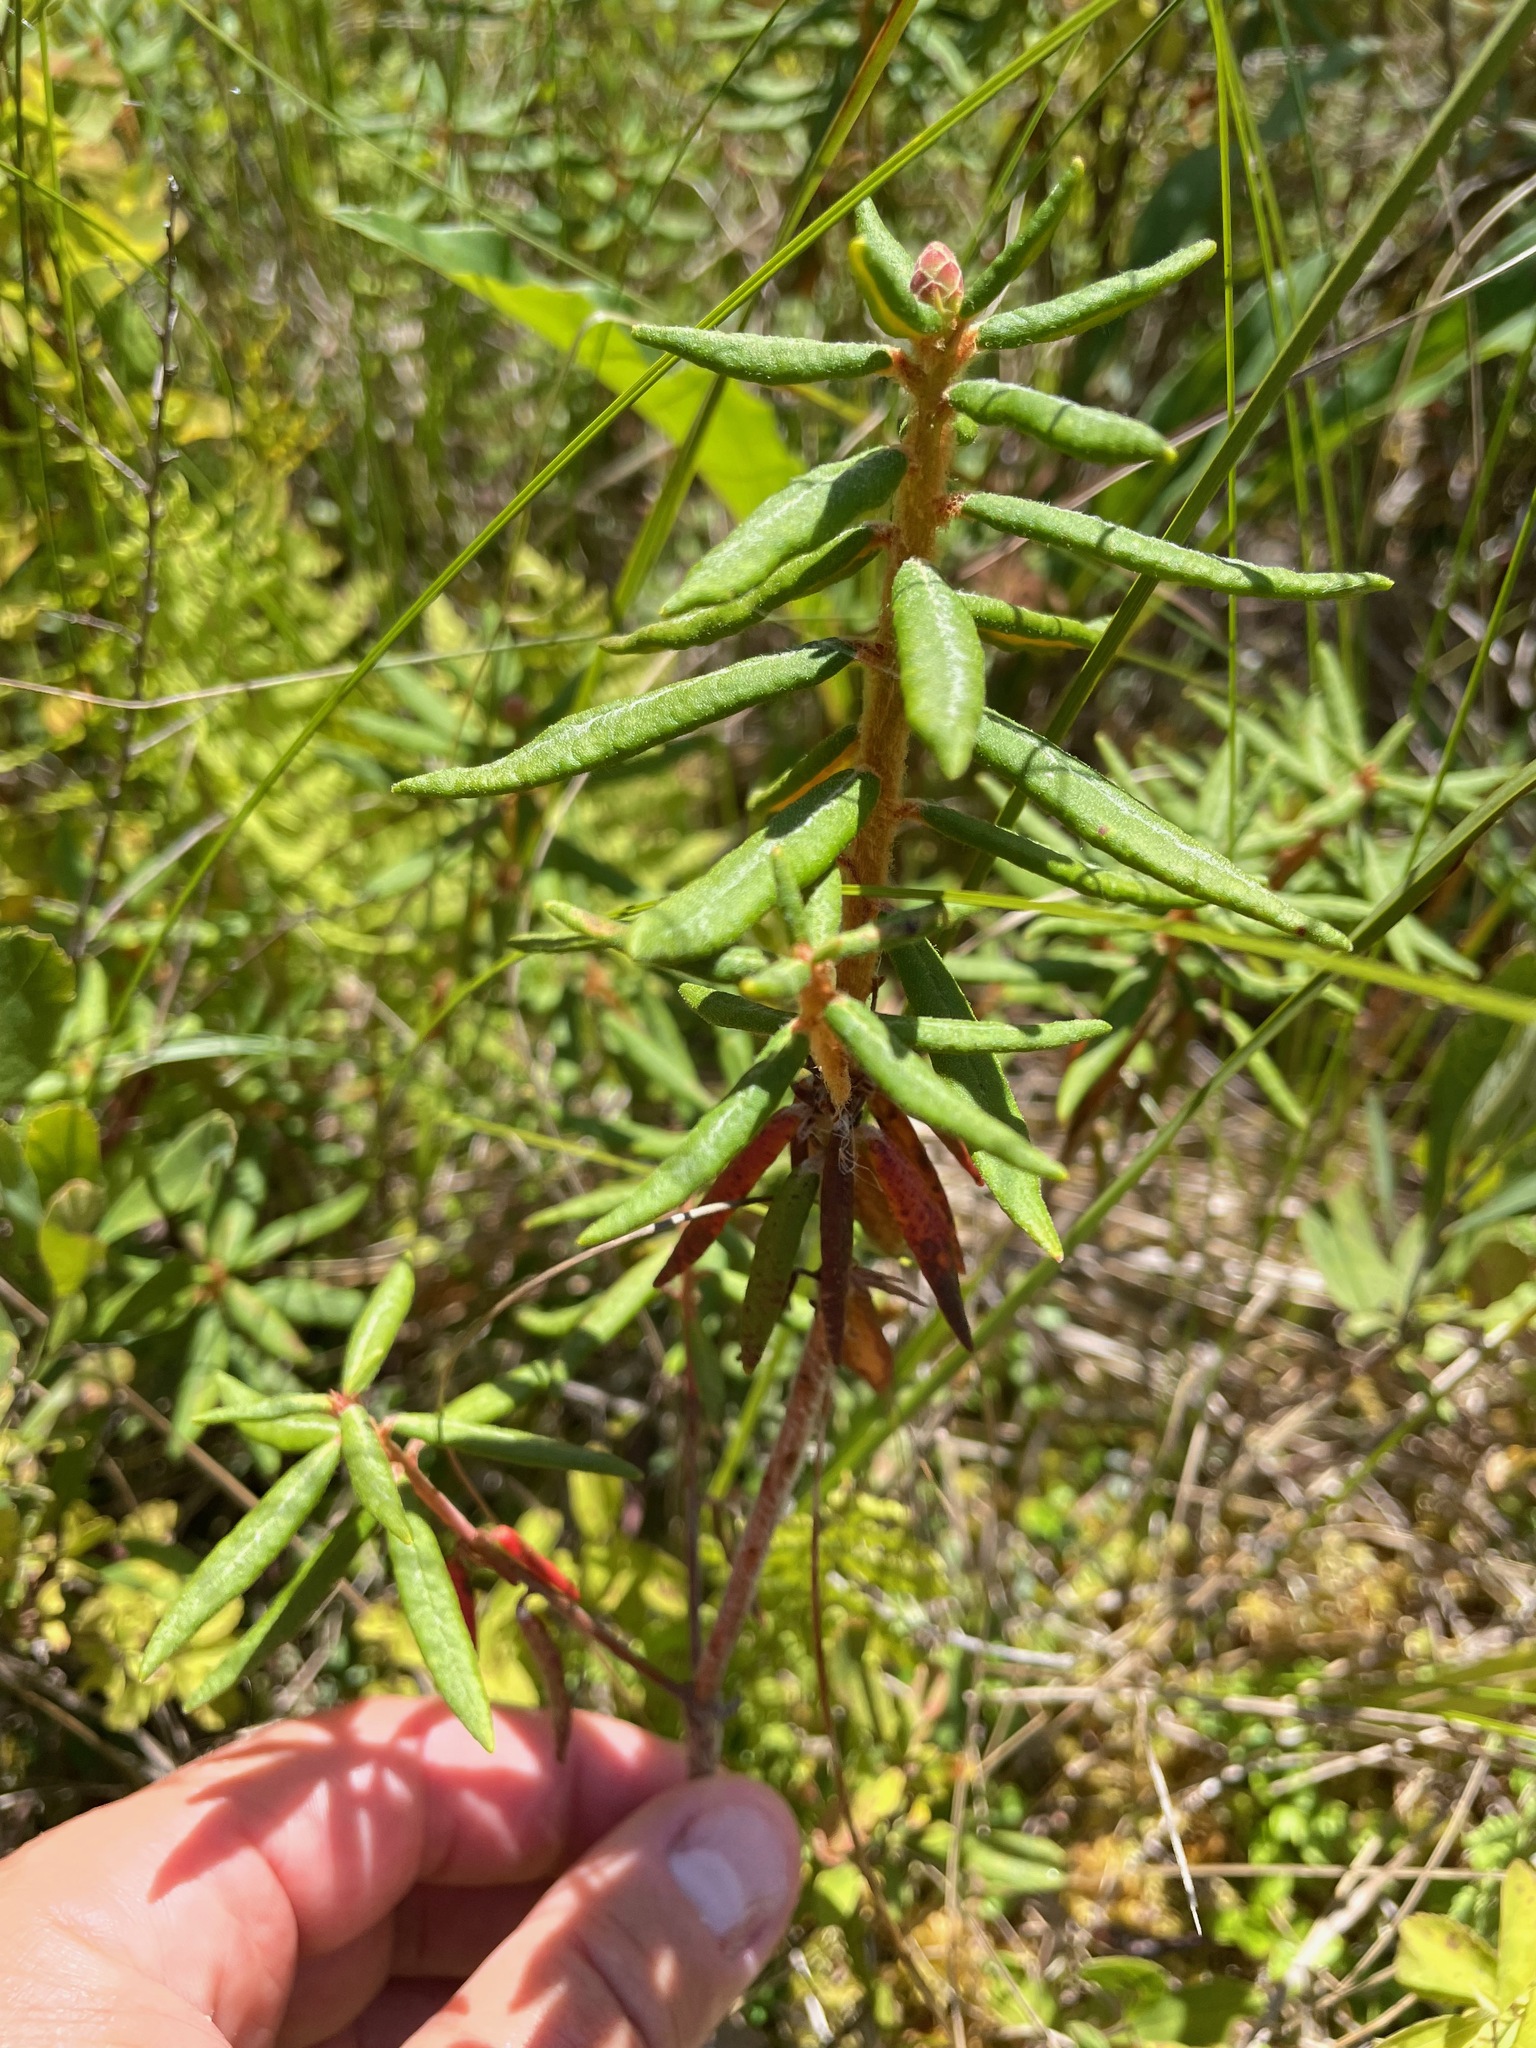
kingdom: Plantae
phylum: Tracheophyta
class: Magnoliopsida
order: Ericales
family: Ericaceae
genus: Rhododendron
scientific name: Rhododendron groenlandicum
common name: Bog labrador tea
